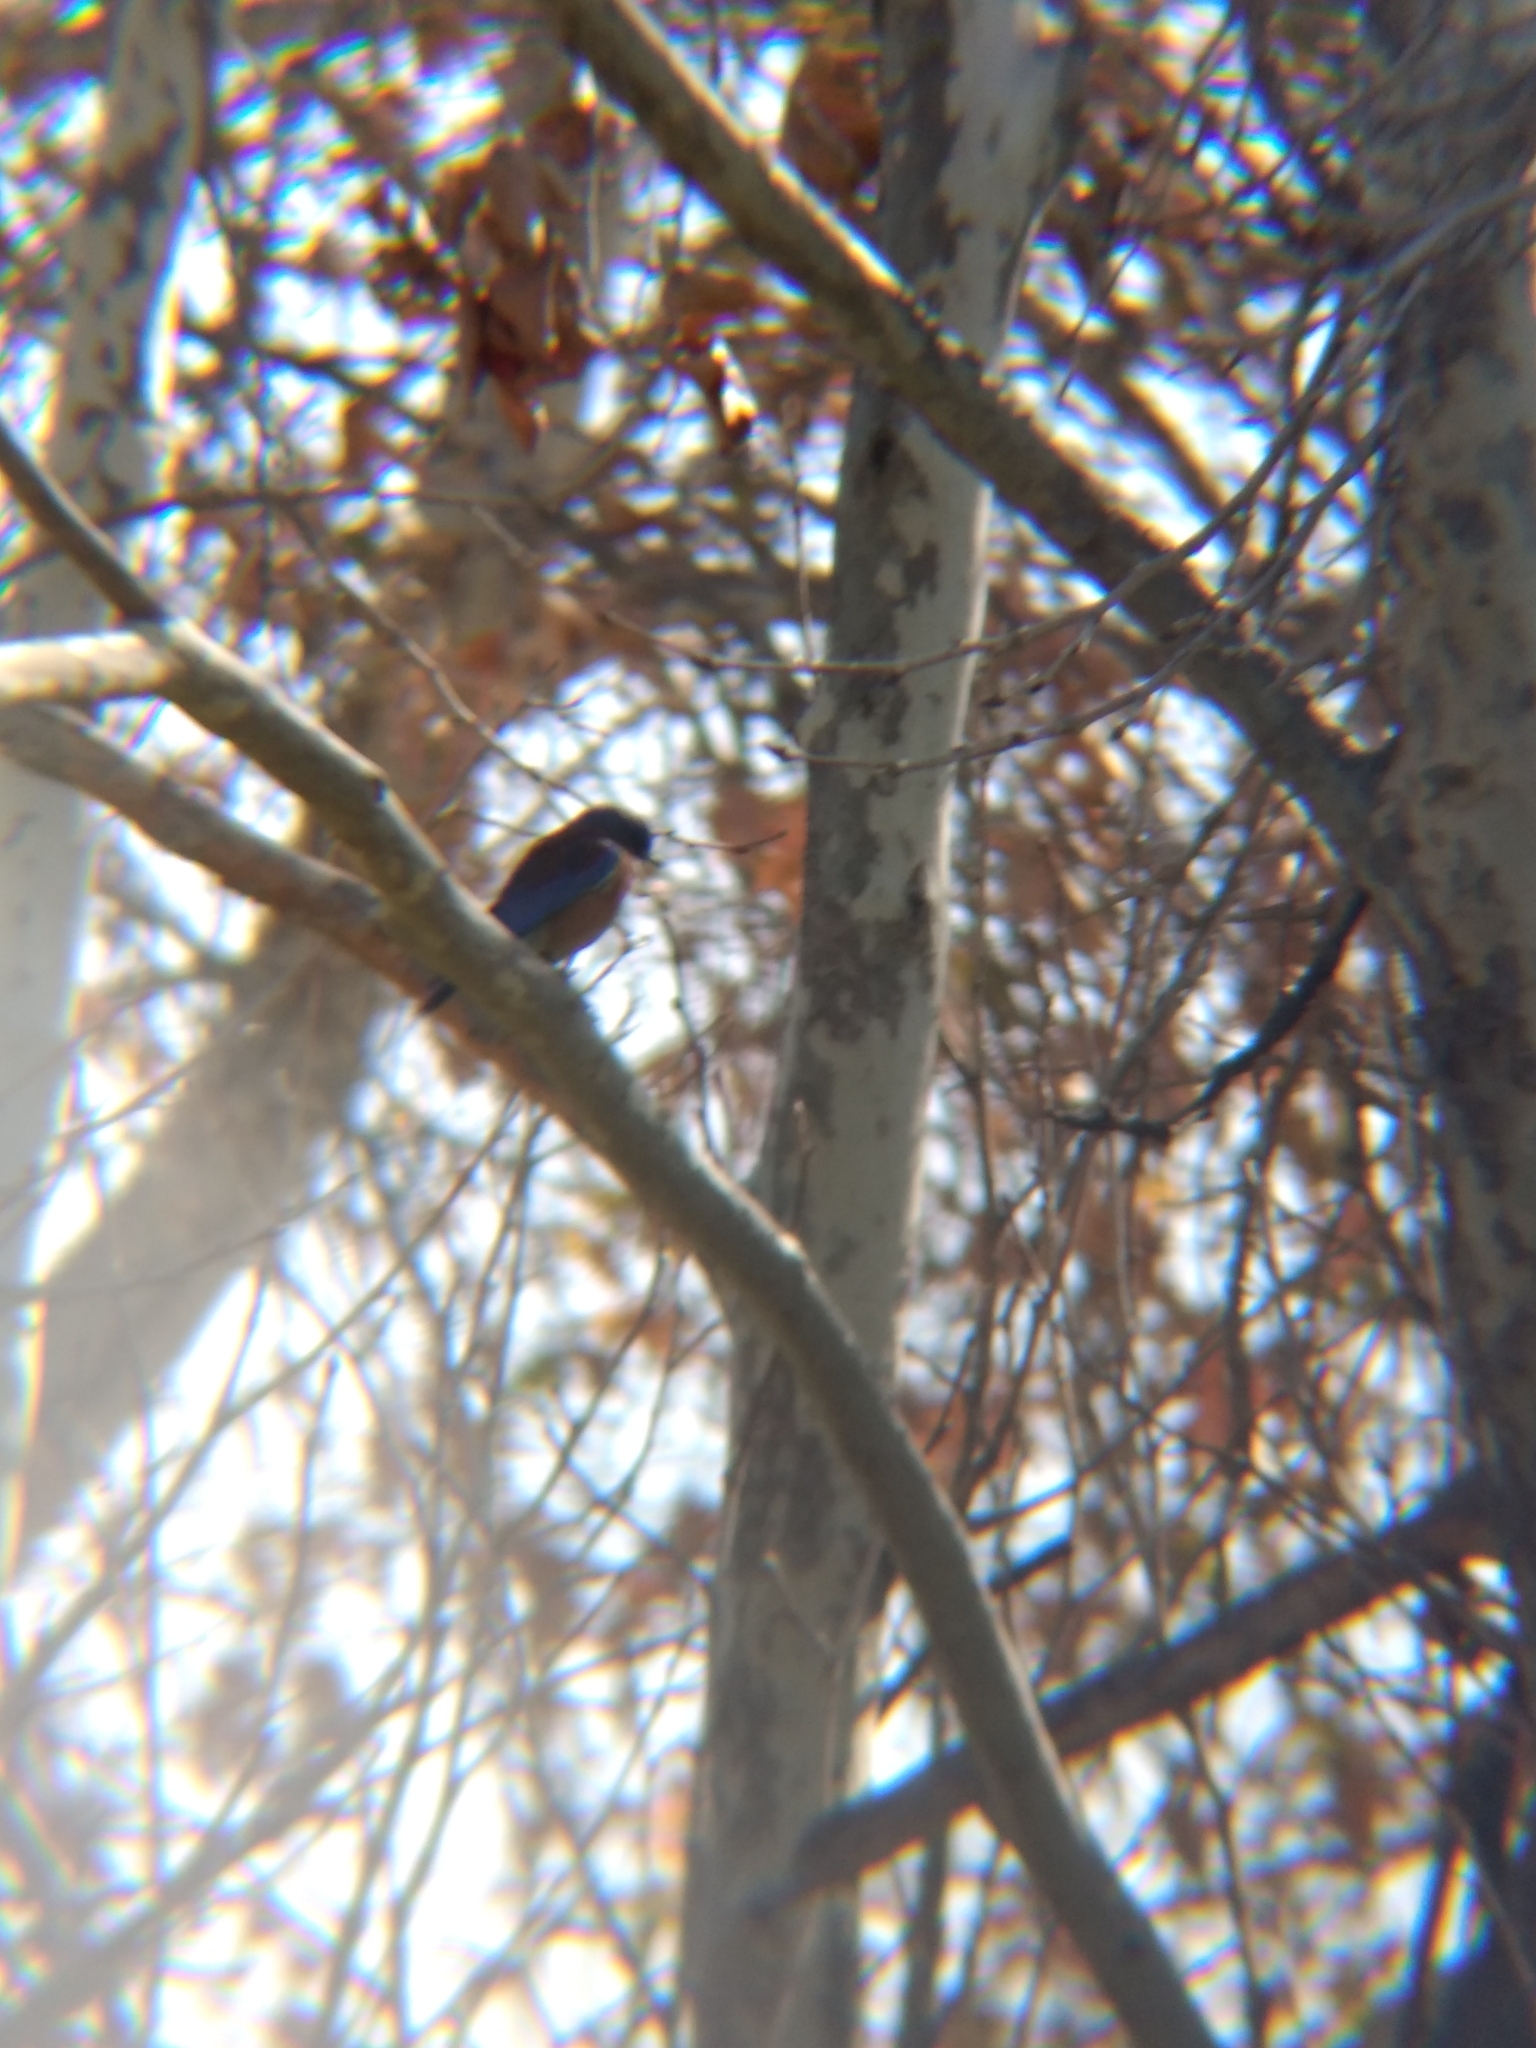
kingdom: Animalia
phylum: Chordata
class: Aves
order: Passeriformes
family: Turdidae
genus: Sialia
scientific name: Sialia mexicana
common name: Western bluebird
